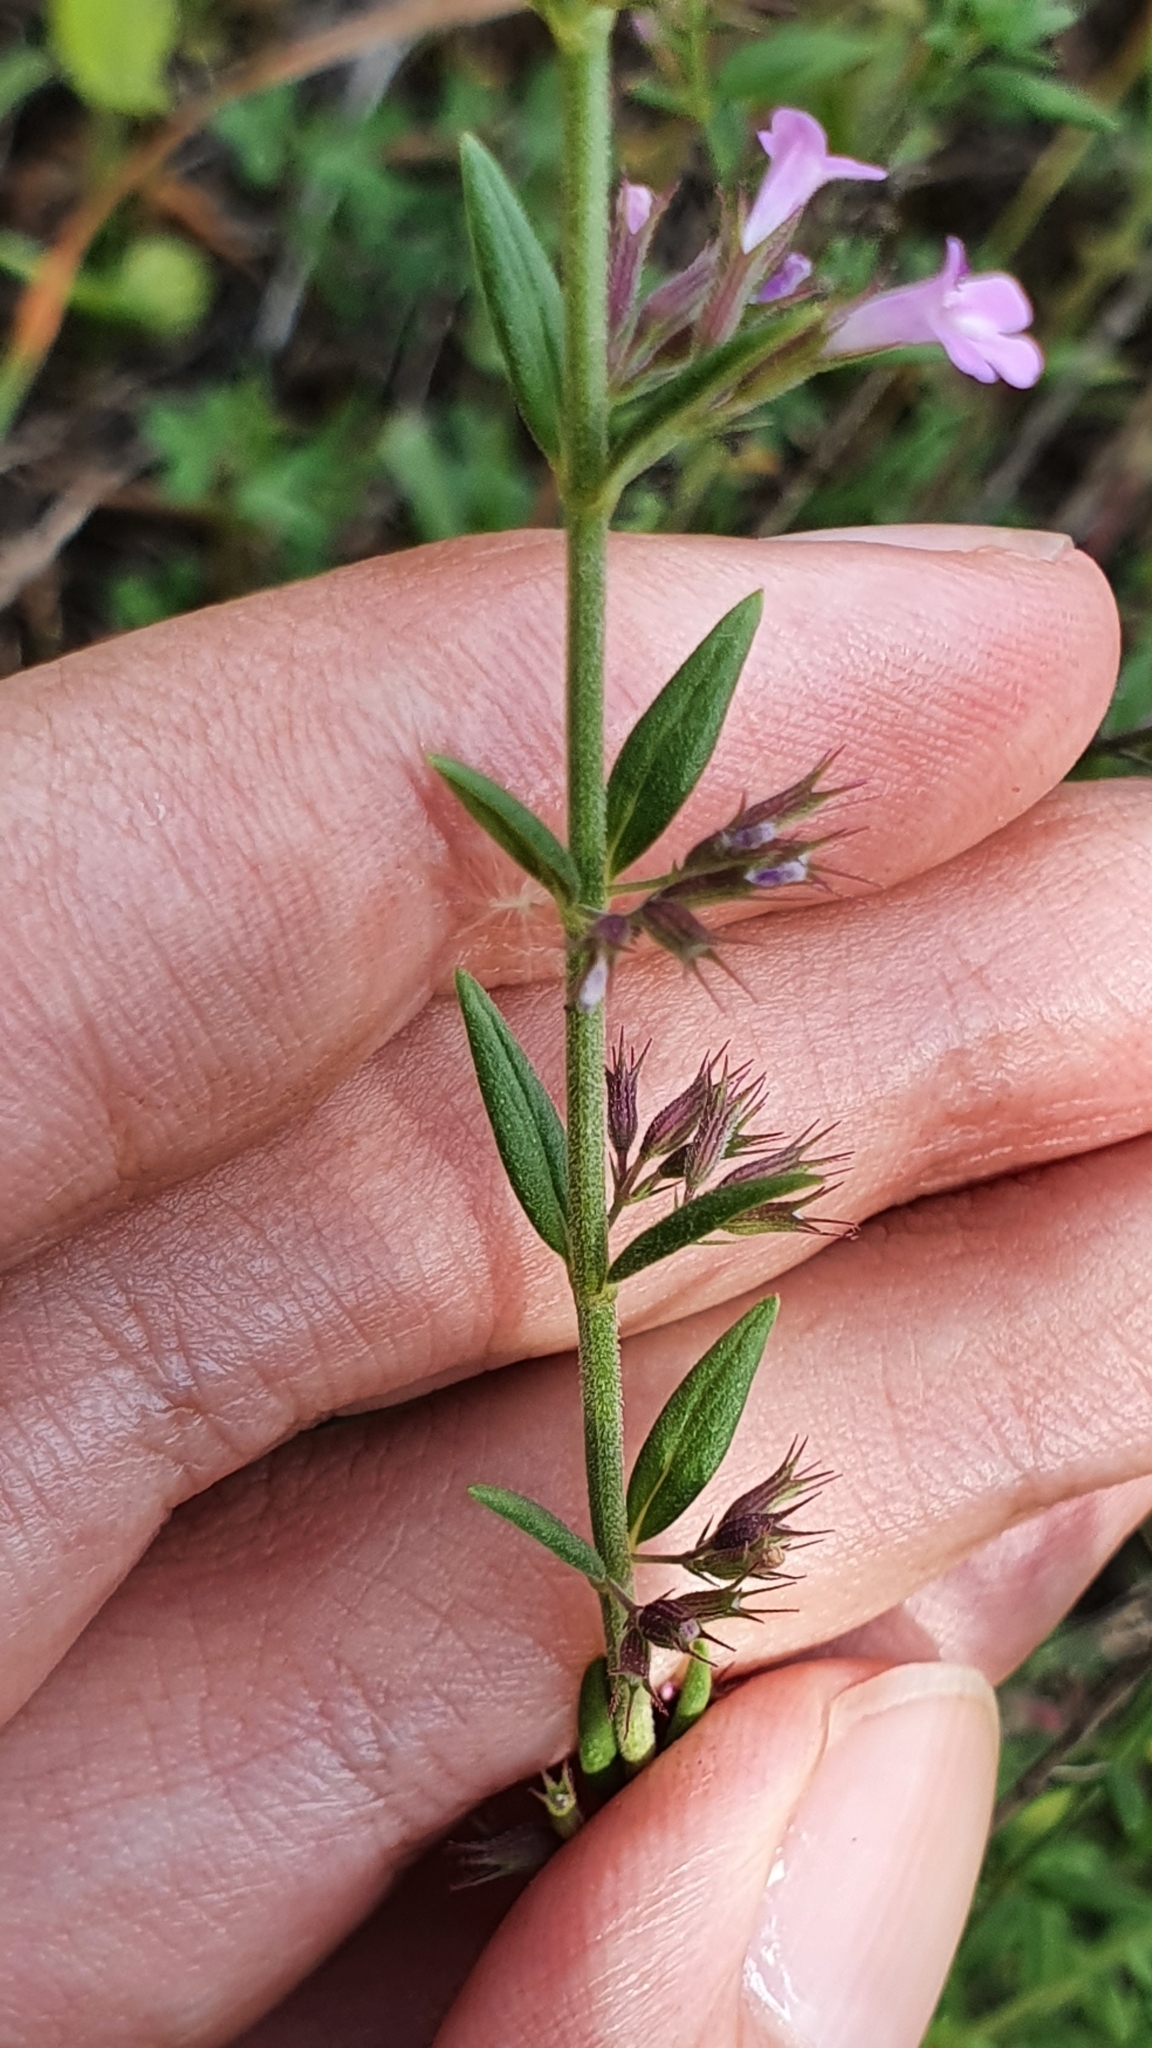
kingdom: Plantae
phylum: Tracheophyta
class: Magnoliopsida
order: Lamiales
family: Lamiaceae
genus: Micromeria
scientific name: Micromeria graeca
